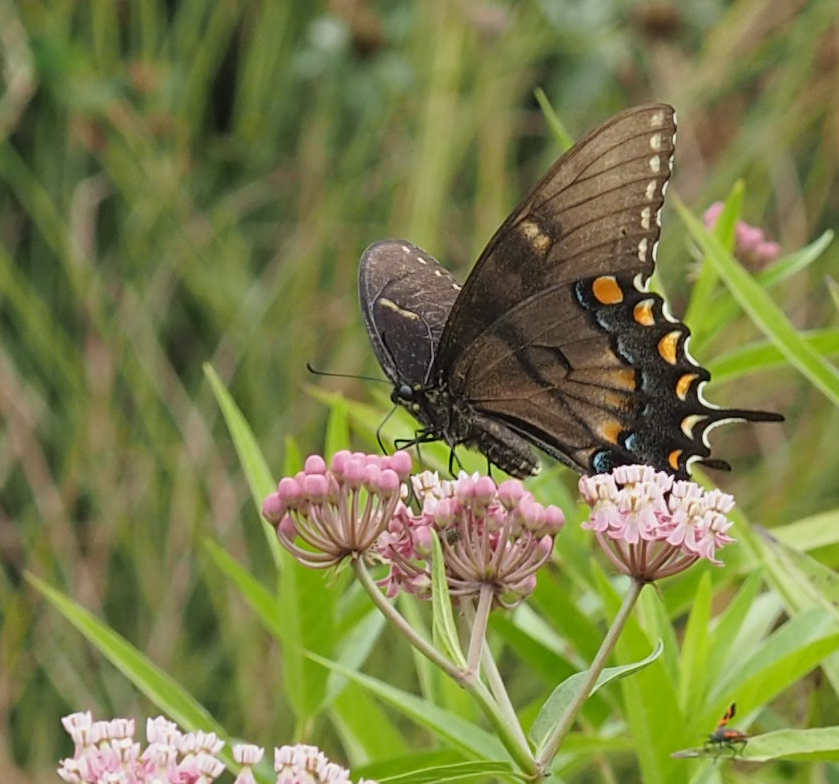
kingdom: Animalia
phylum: Arthropoda
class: Insecta
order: Lepidoptera
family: Papilionidae
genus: Papilio
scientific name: Papilio glaucus
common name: Tiger swallowtail
